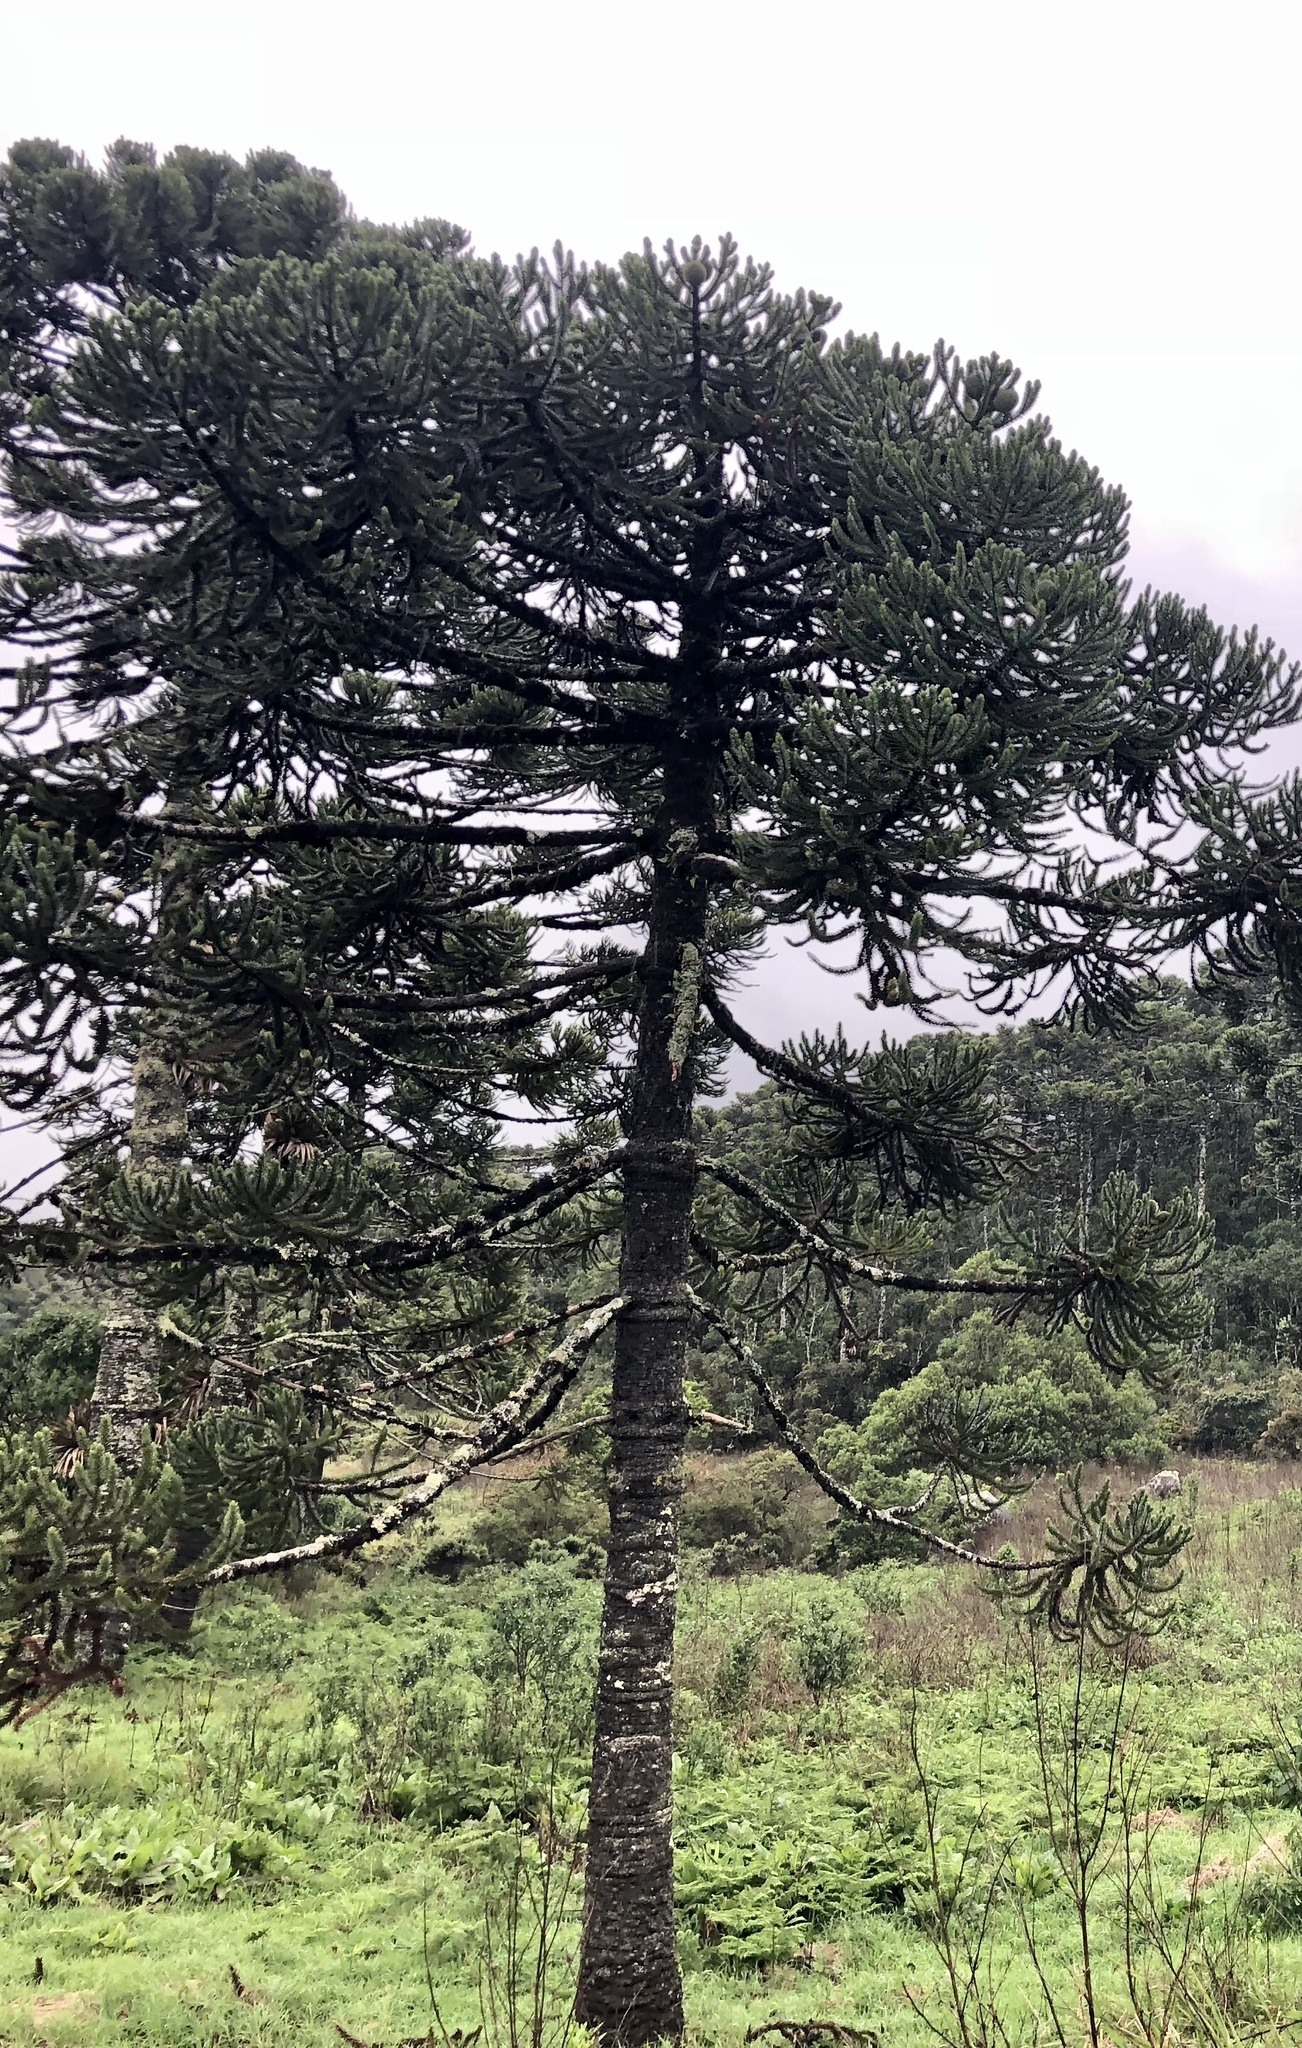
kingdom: Plantae
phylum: Tracheophyta
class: Pinopsida
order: Pinales
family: Araucariaceae
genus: Araucaria
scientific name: Araucaria angustifolia
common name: Candelabra tree
